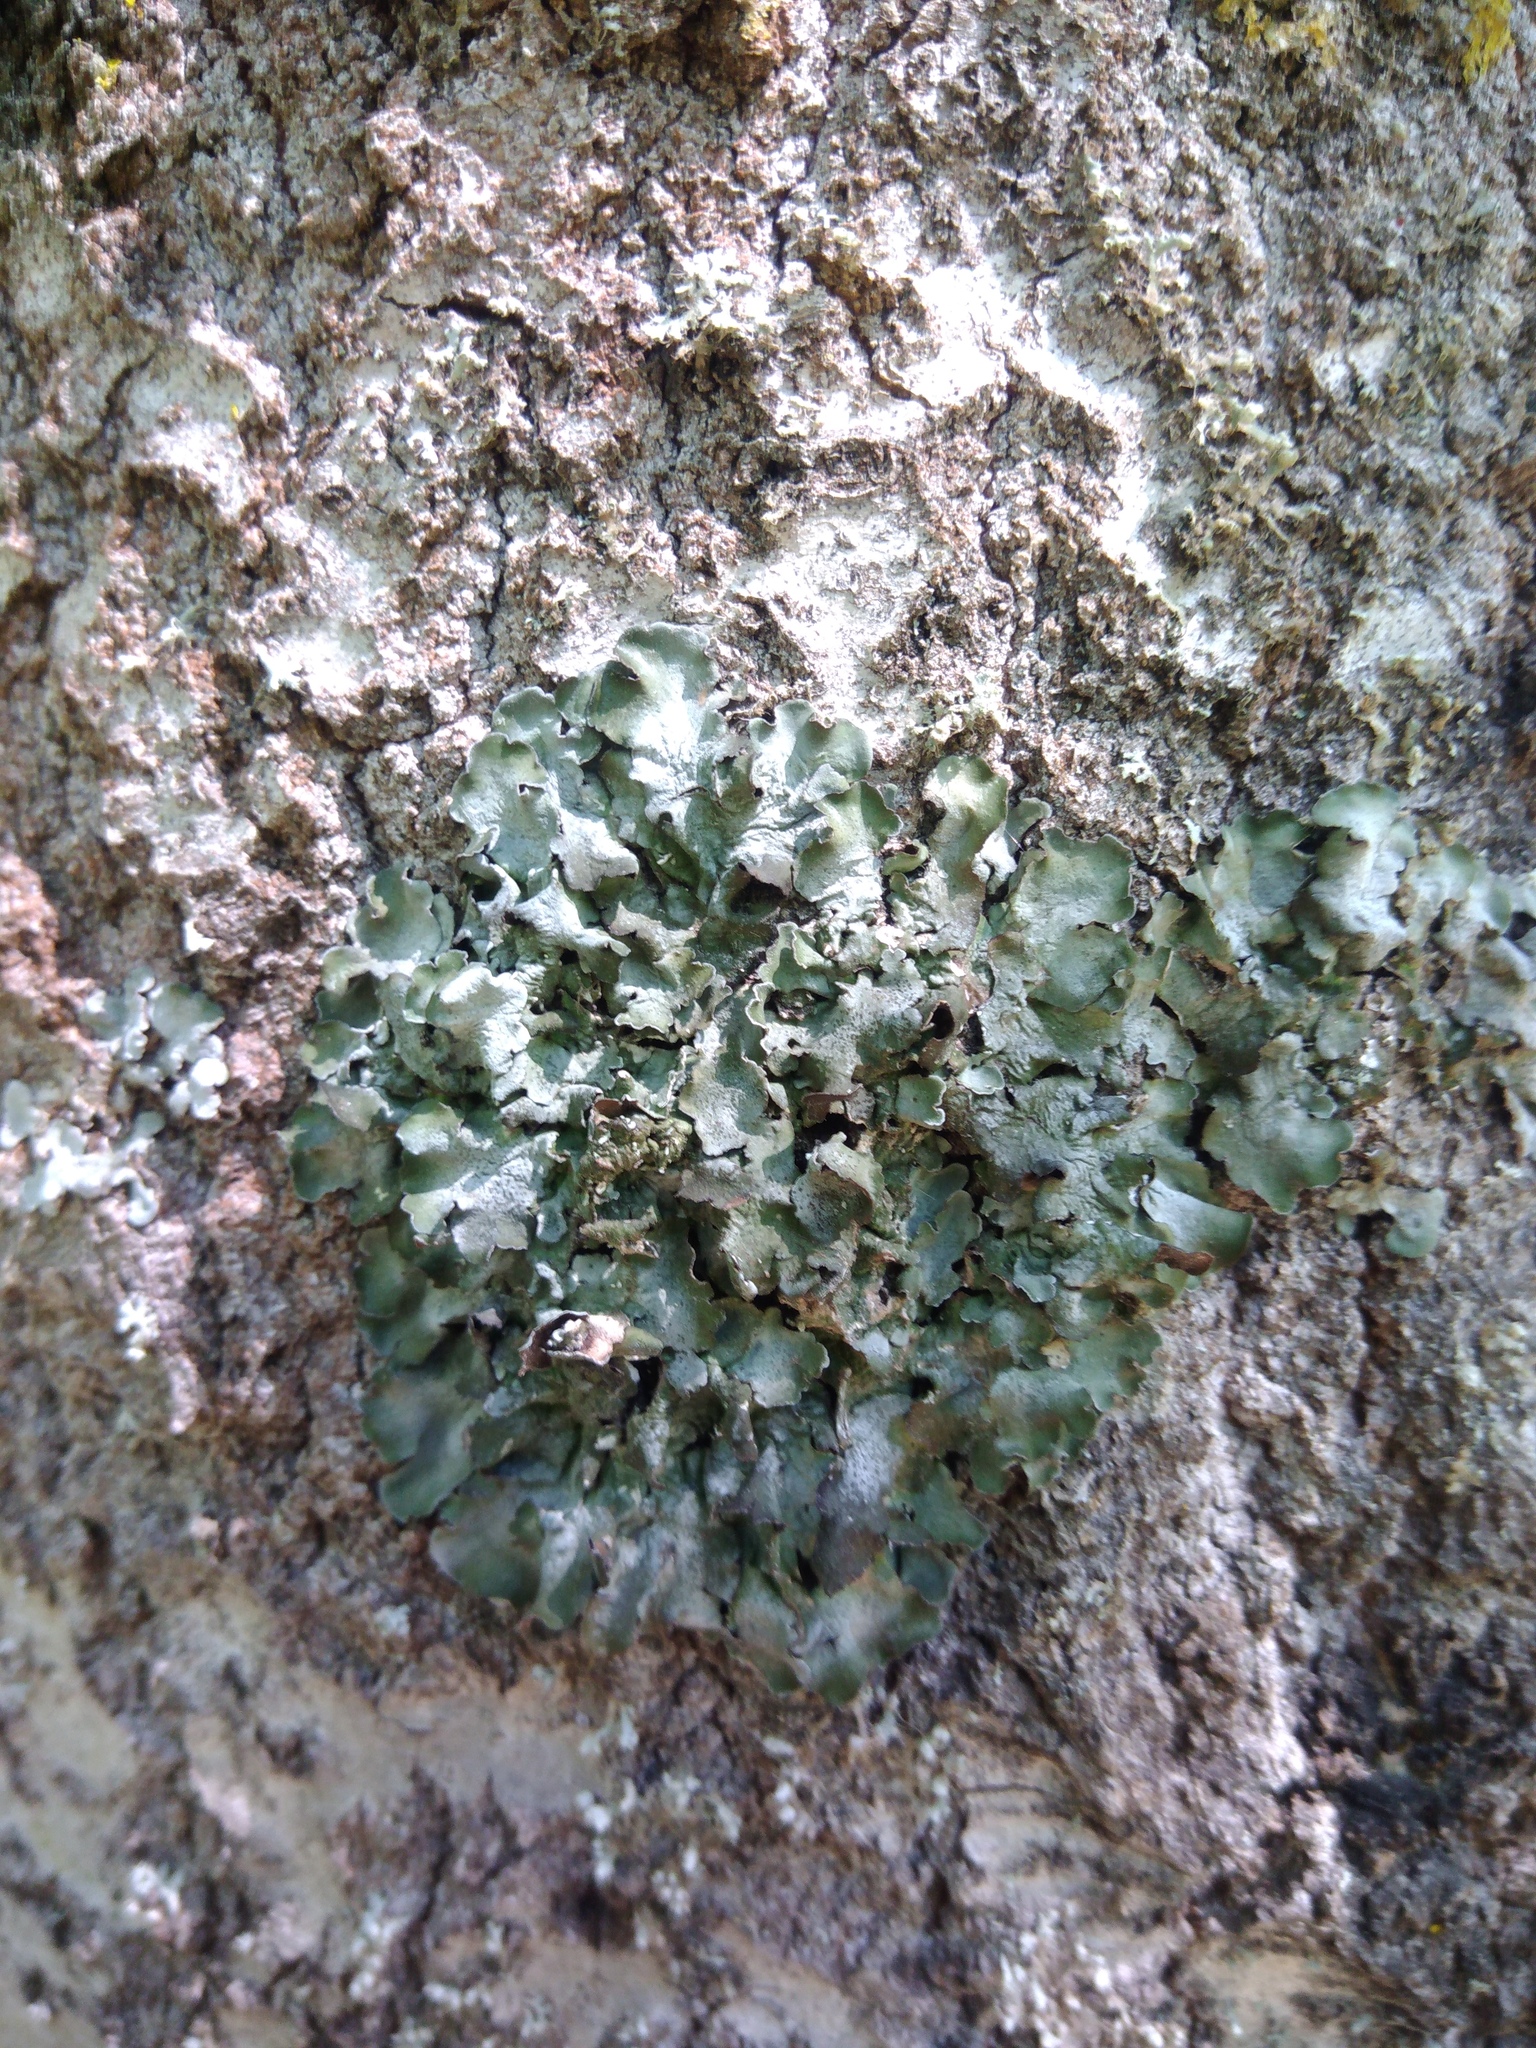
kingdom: Fungi
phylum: Ascomycota
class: Lecanoromycetes
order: Lecanorales
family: Parmeliaceae
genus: Pleurosticta
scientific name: Pleurosticta acetabulum
